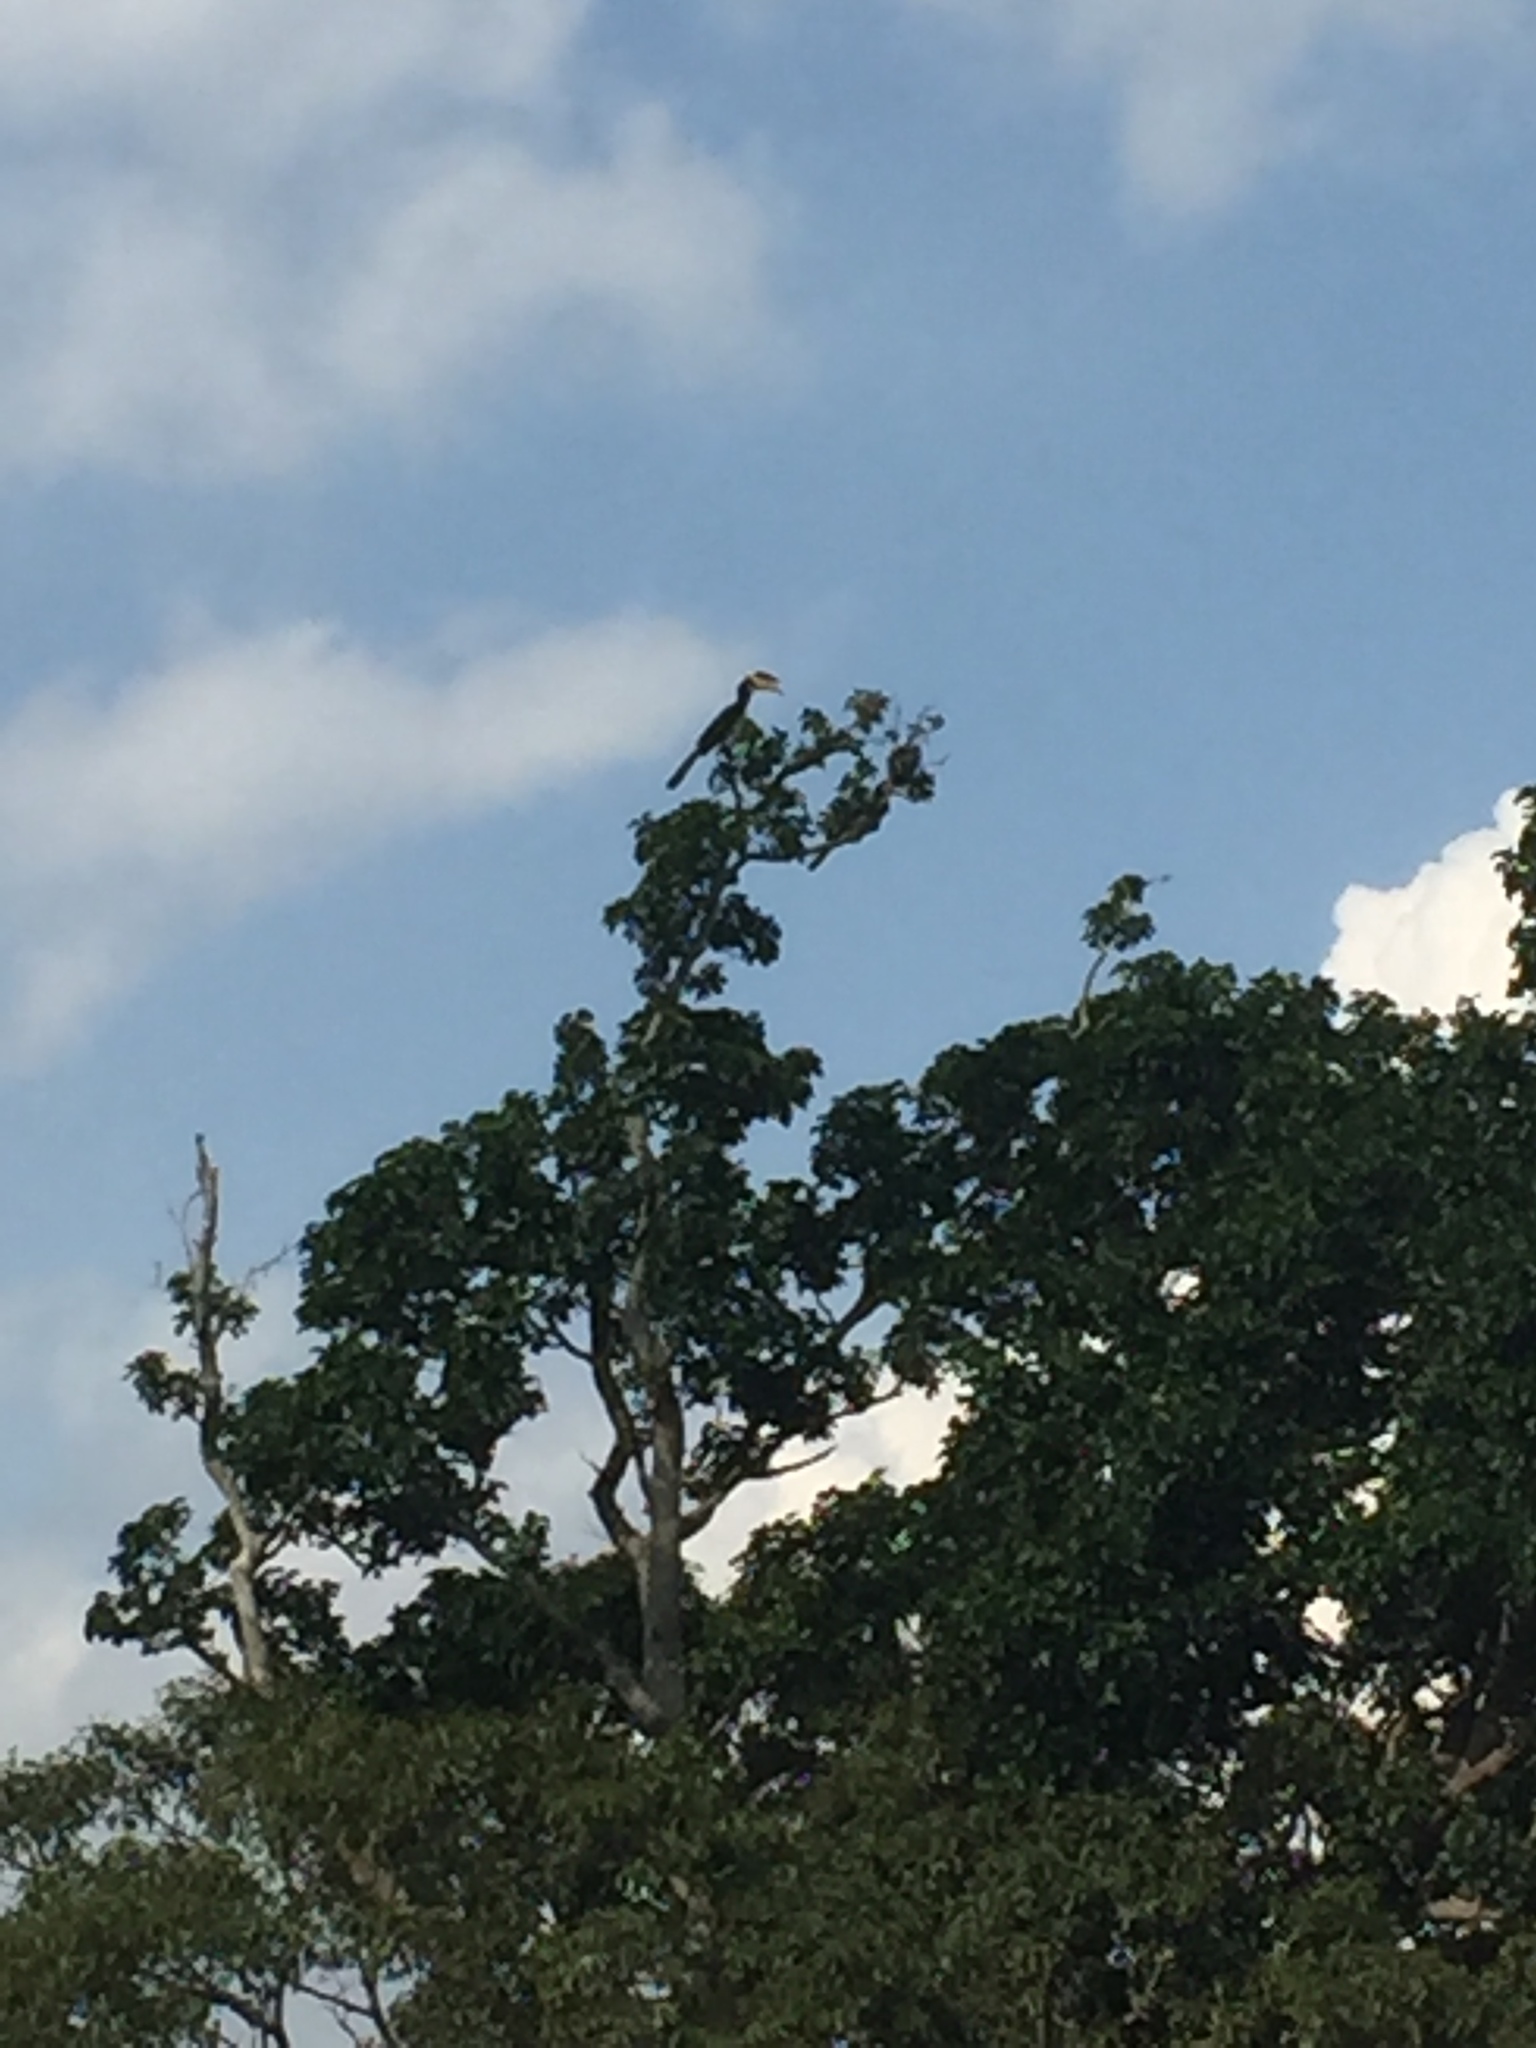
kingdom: Animalia
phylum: Chordata
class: Aves
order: Bucerotiformes
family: Bucerotidae
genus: Anthracoceros
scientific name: Anthracoceros coronatus
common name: Malabar pied hornbill
